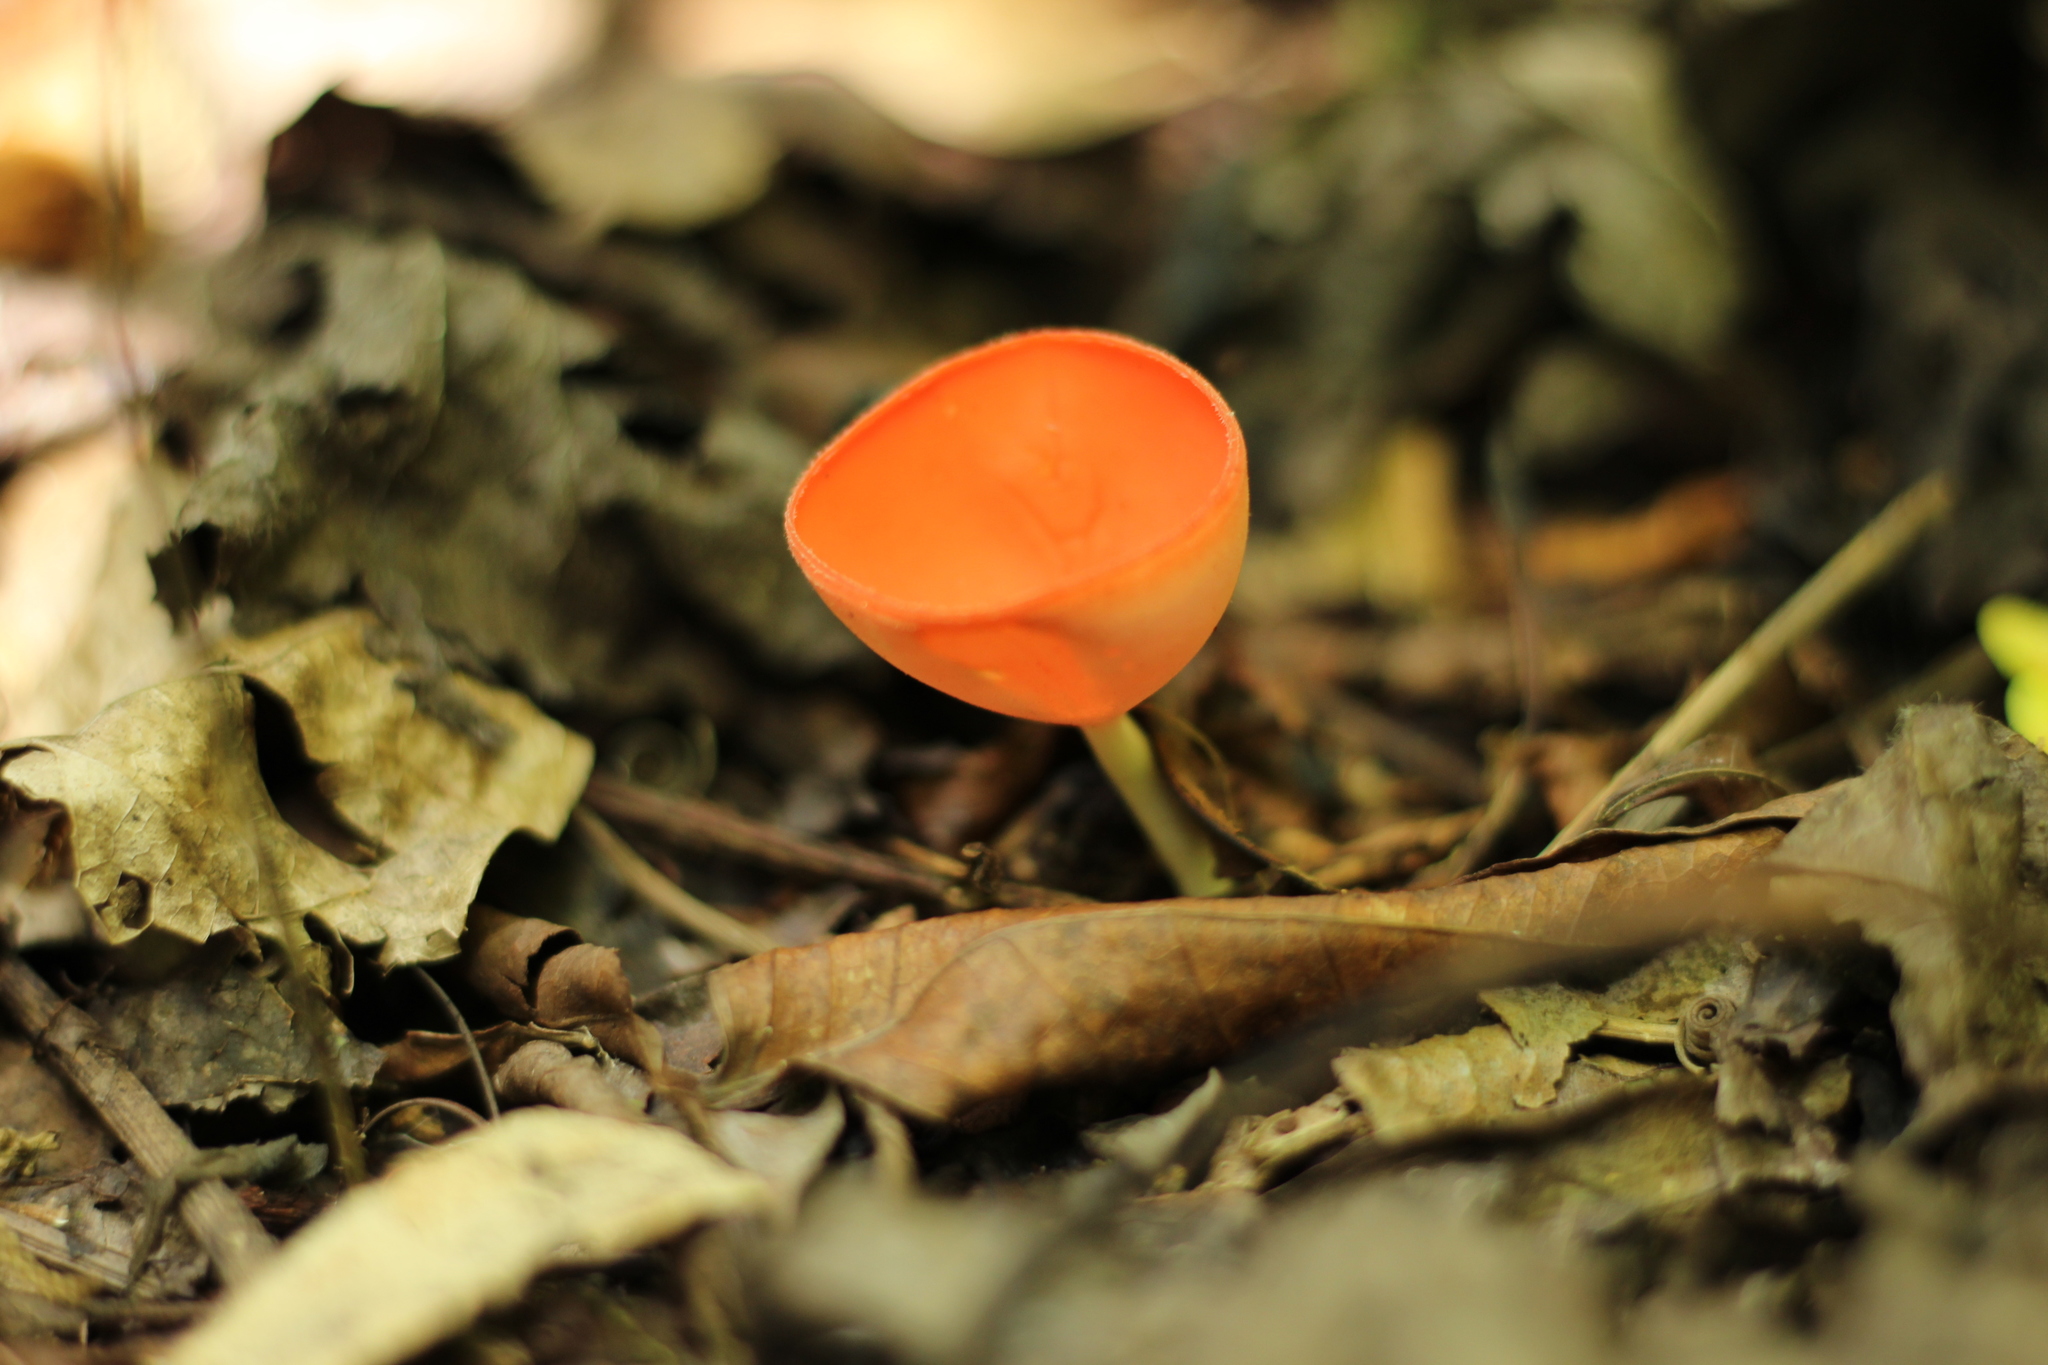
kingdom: Fungi
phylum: Ascomycota
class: Pezizomycetes
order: Pezizales
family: Sarcoscyphaceae
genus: Sarcoscypha
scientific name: Sarcoscypha occidentalis
